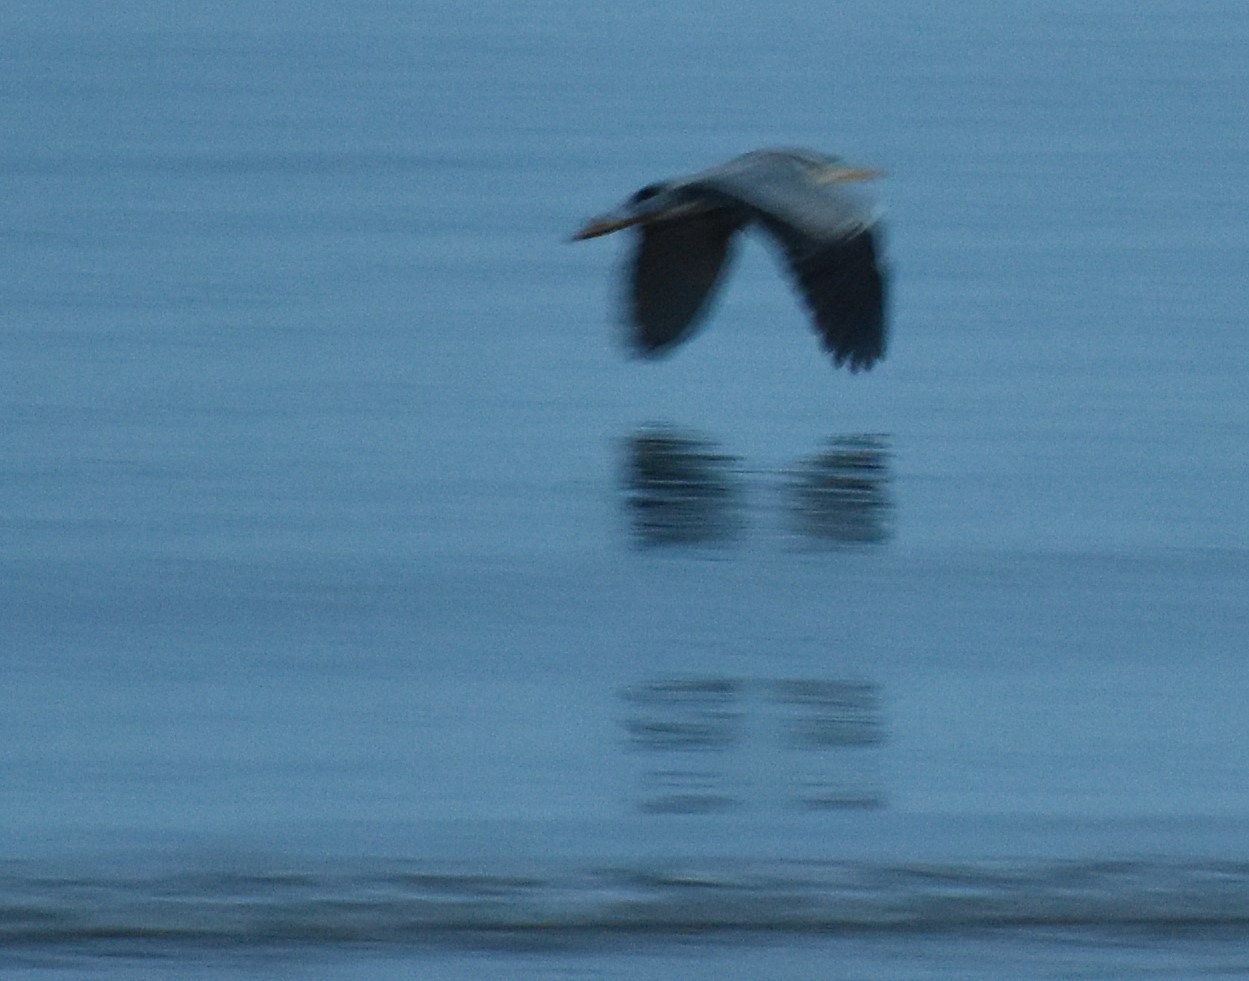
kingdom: Animalia
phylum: Chordata
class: Aves
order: Pelecaniformes
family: Ardeidae
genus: Ardea
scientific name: Ardea cinerea
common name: Grey heron
